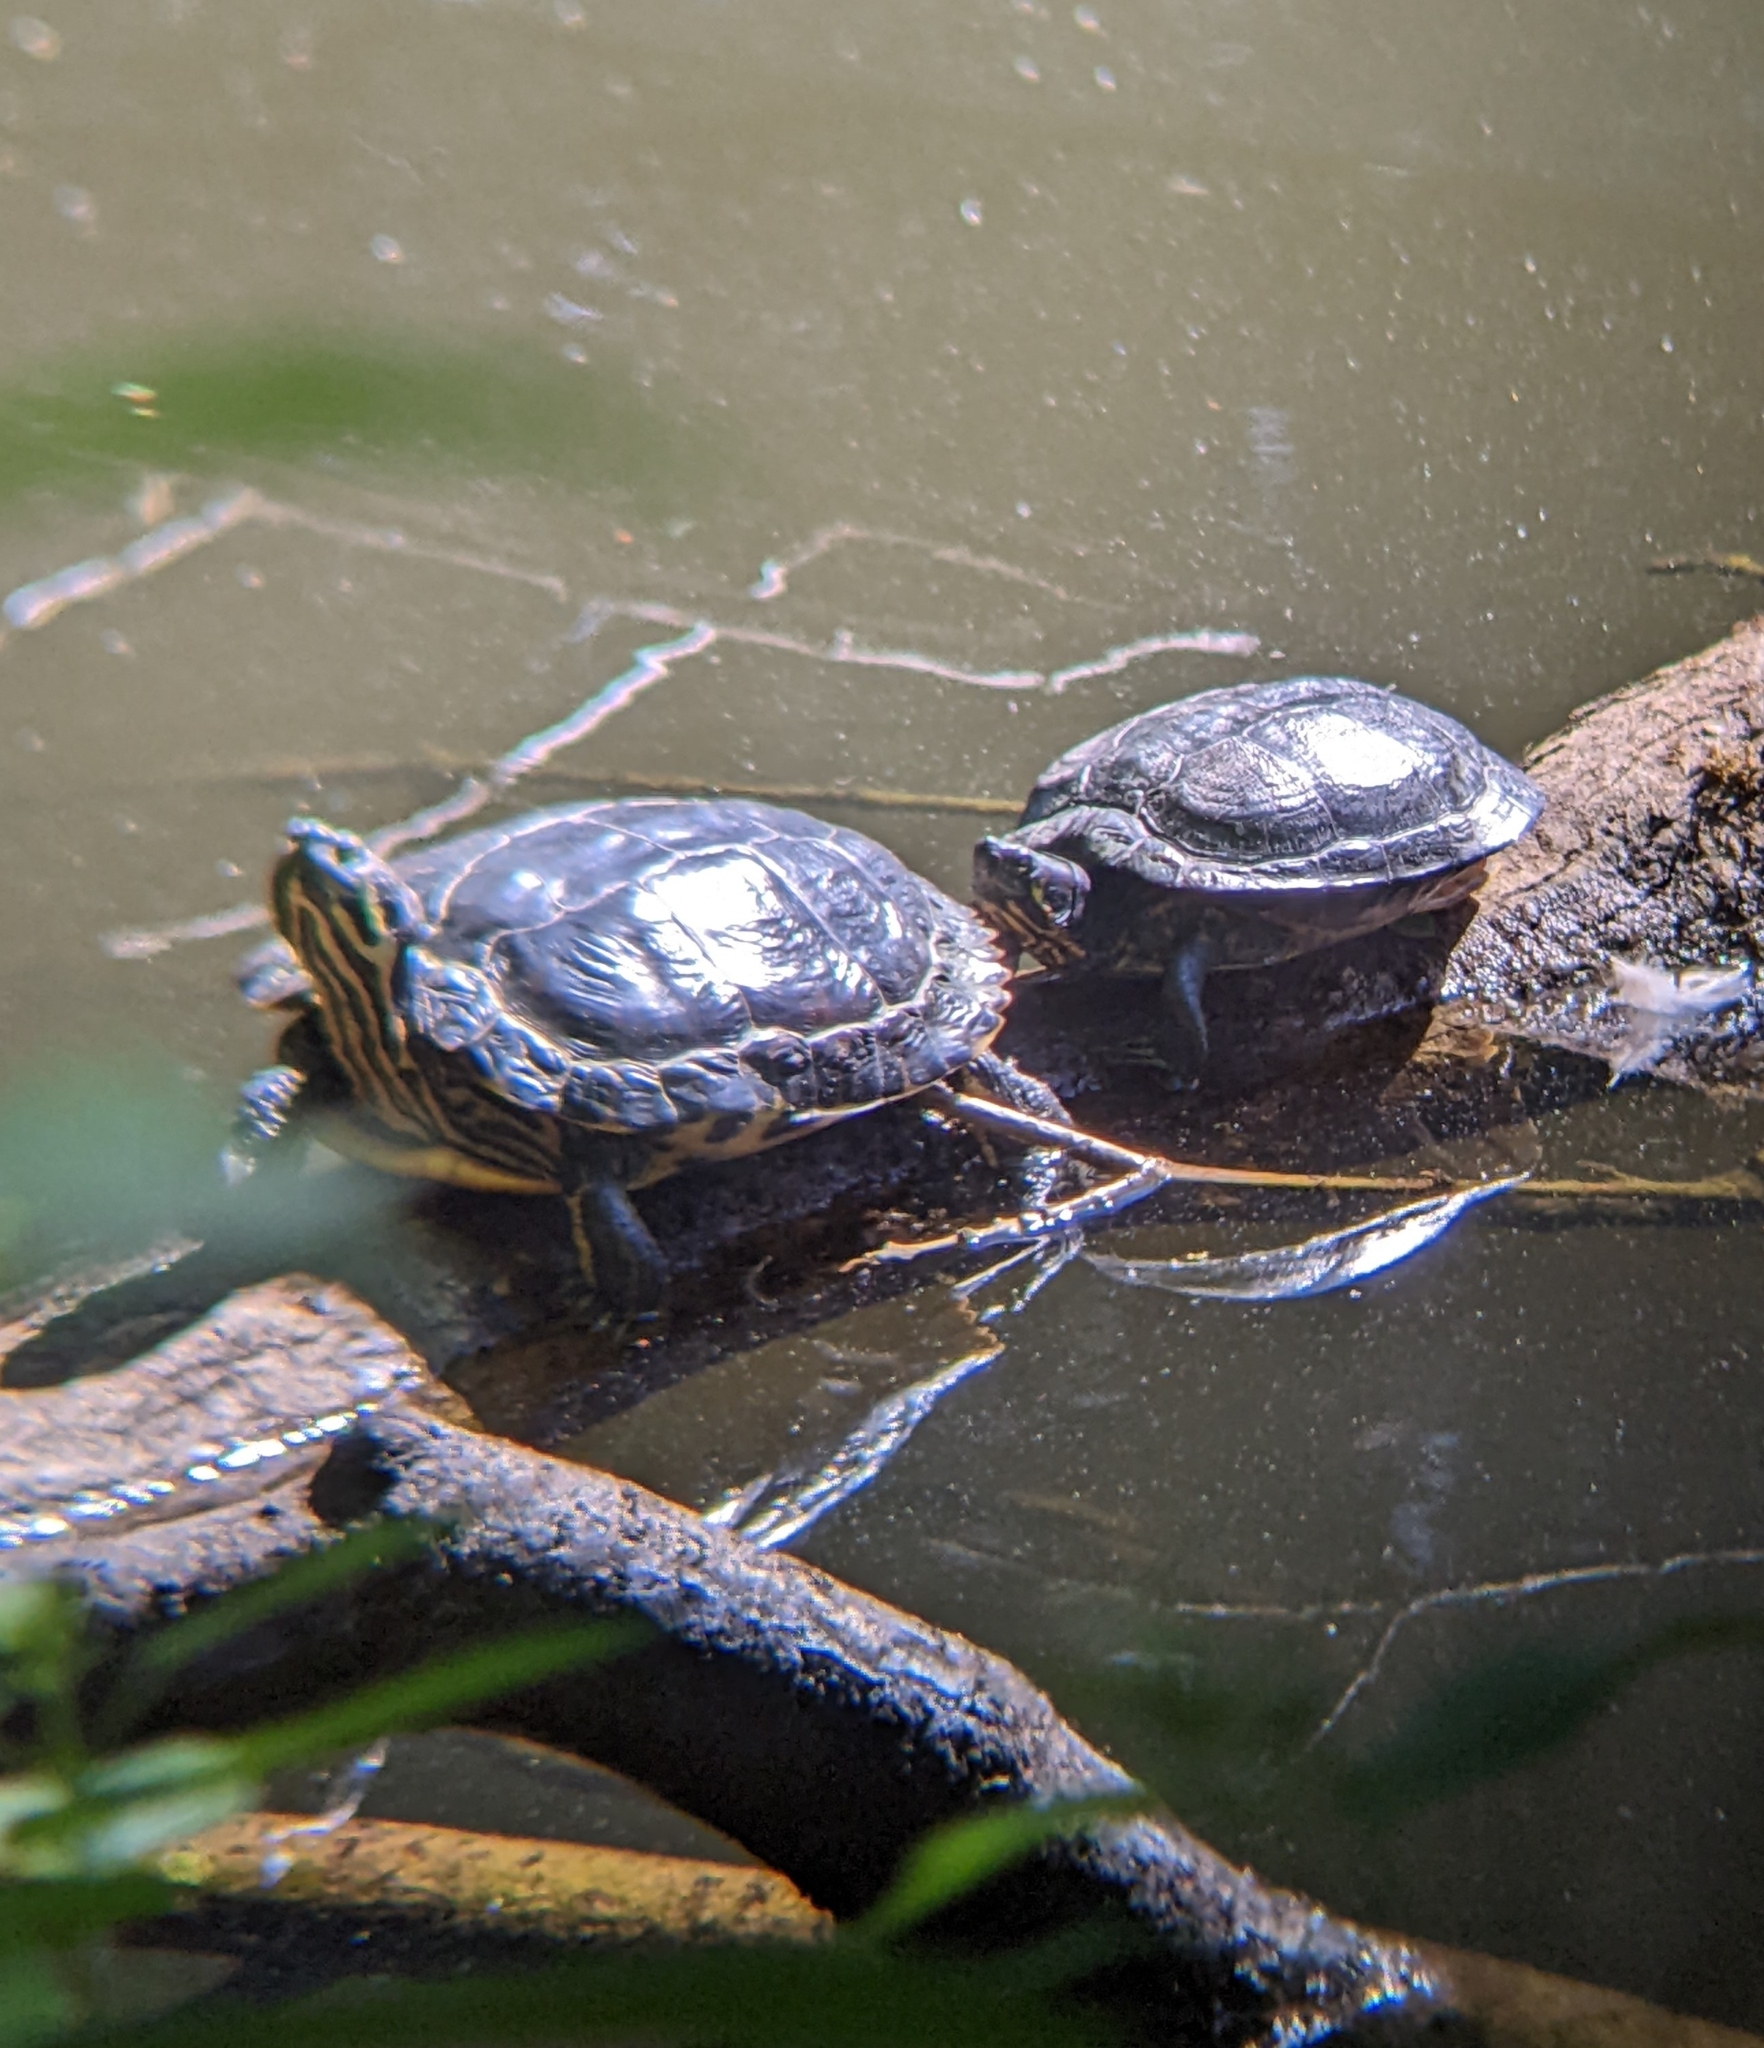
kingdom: Animalia
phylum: Chordata
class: Testudines
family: Emydidae
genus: Trachemys
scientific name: Trachemys scripta
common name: Slider
